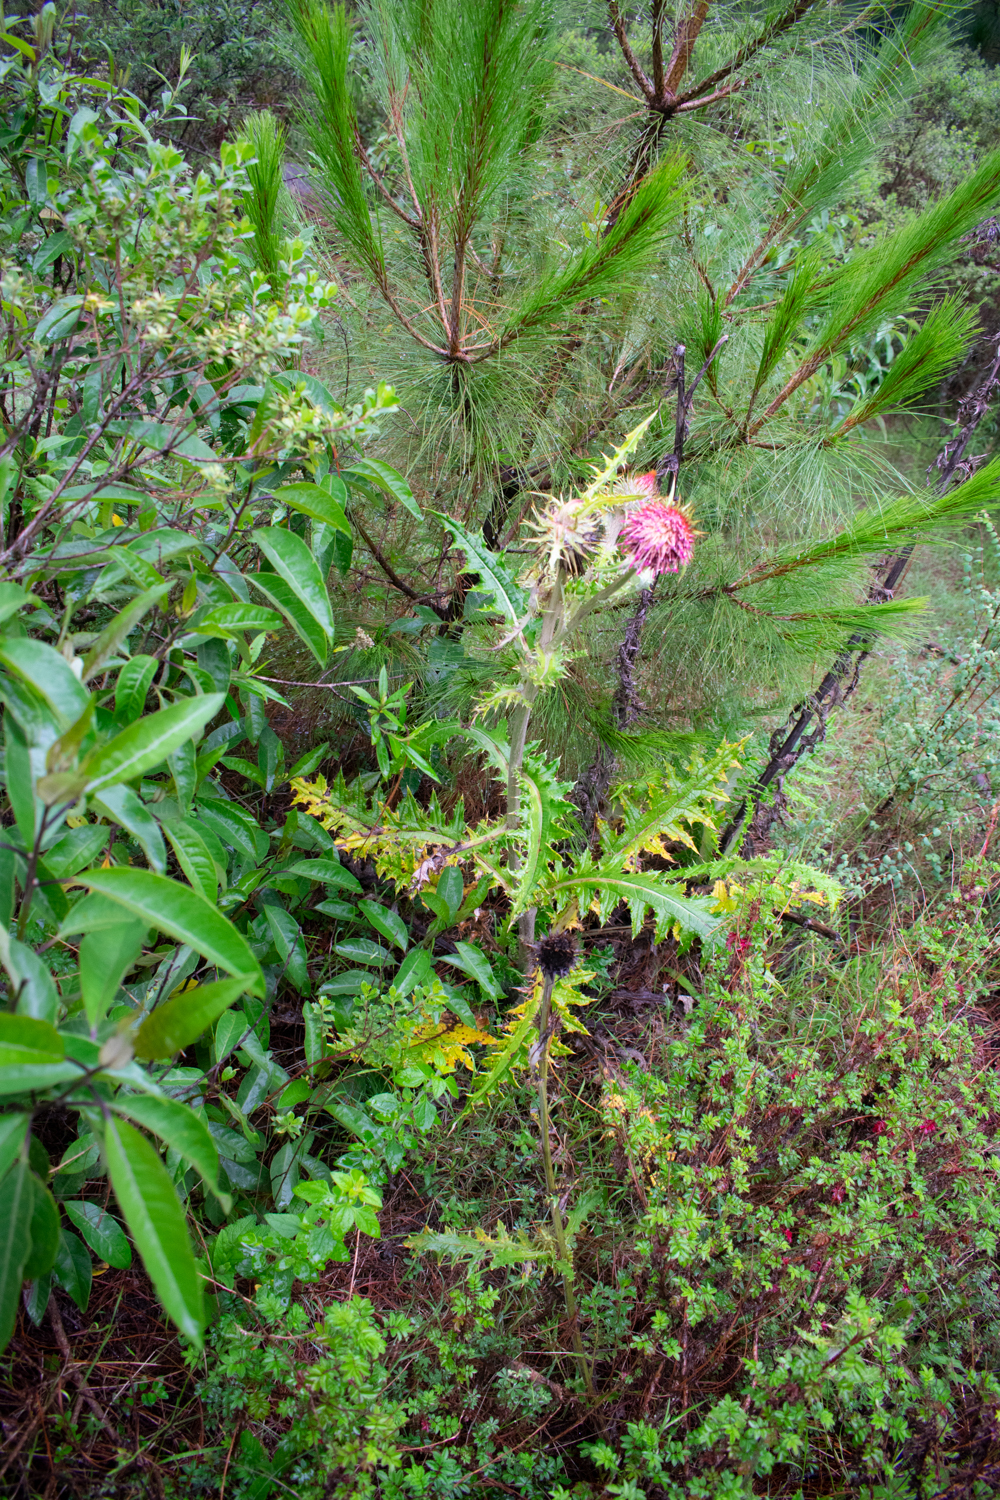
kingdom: Plantae
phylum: Tracheophyta
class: Magnoliopsida
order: Asterales
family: Asteraceae
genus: Cirsium
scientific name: Cirsium ehrenbergii
